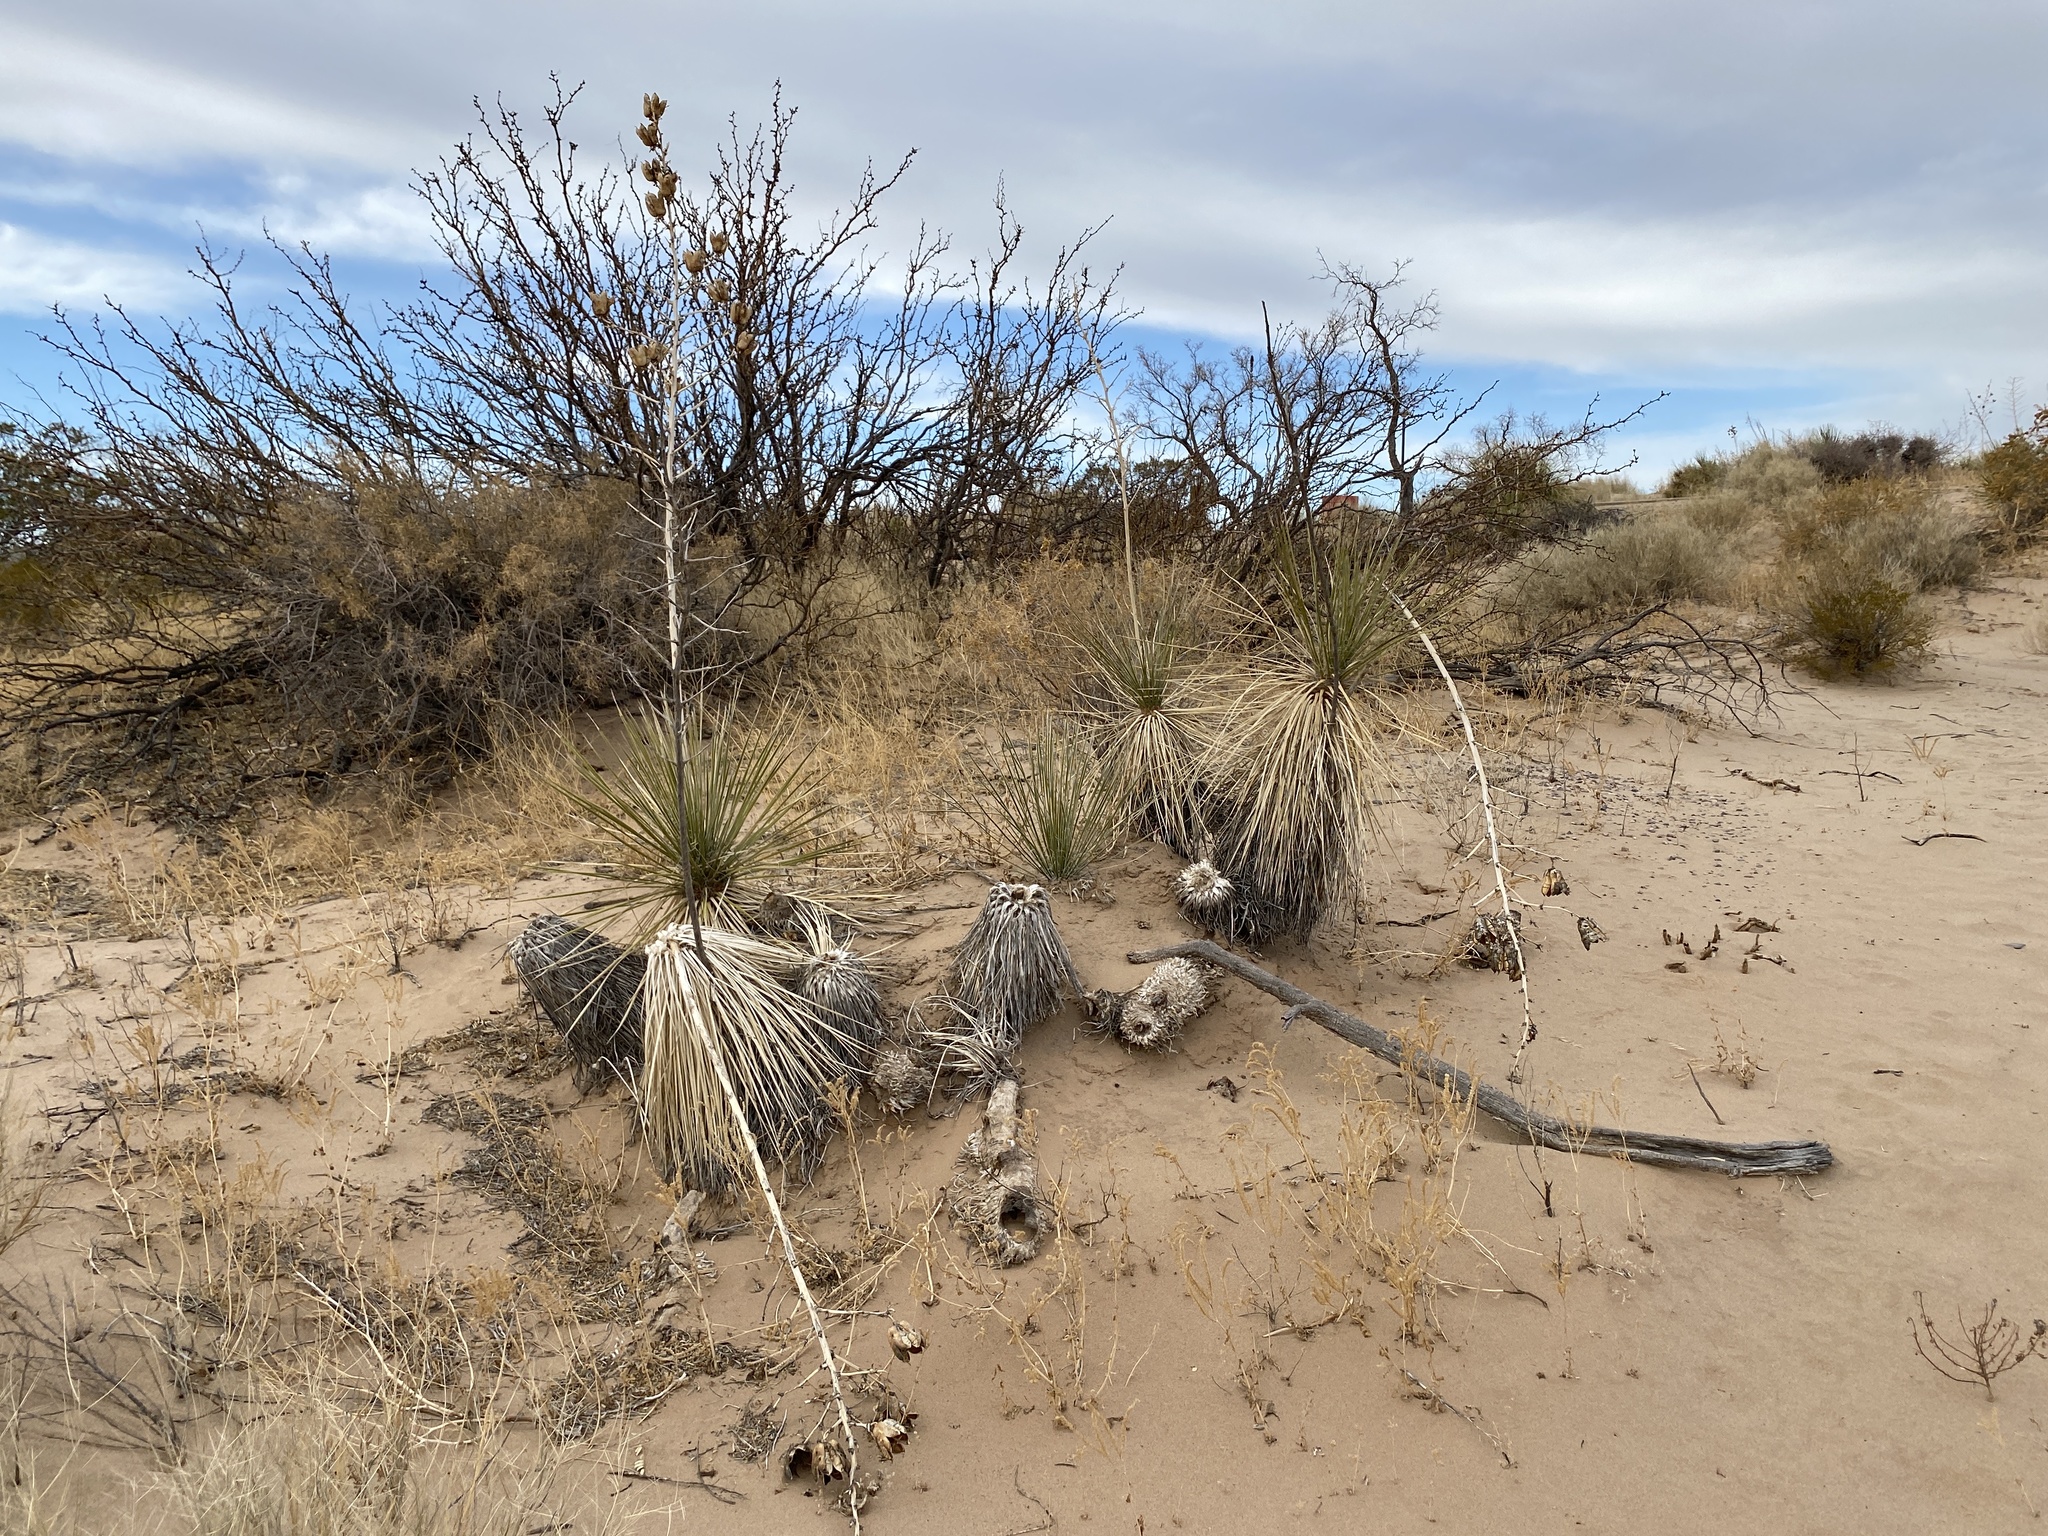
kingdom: Plantae
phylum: Tracheophyta
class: Liliopsida
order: Asparagales
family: Asparagaceae
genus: Yucca
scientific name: Yucca elata
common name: Palmella
